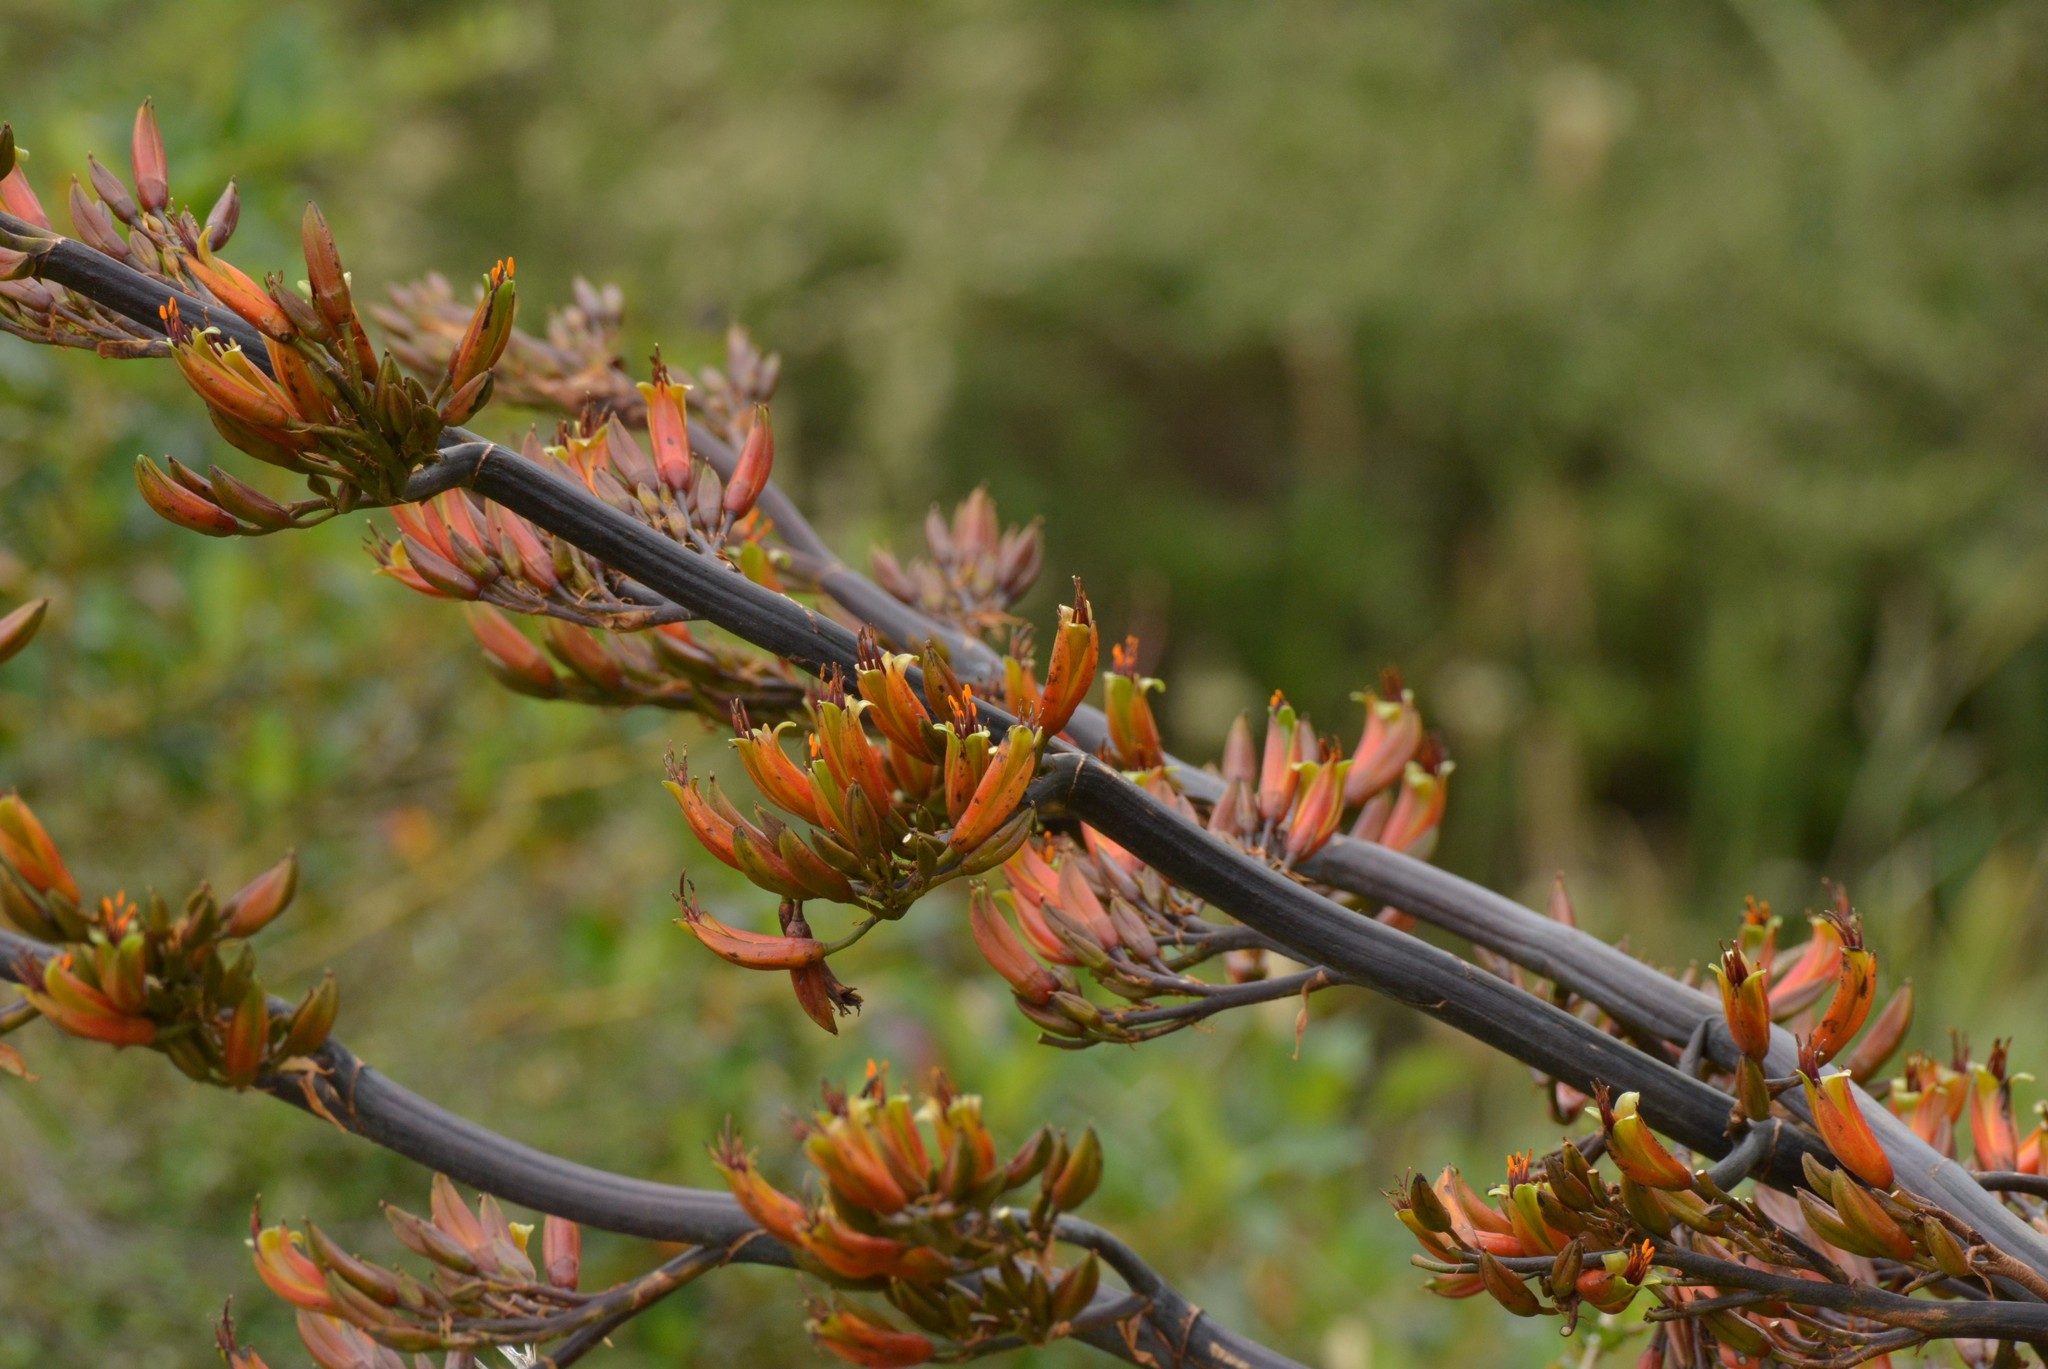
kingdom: Plantae
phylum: Tracheophyta
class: Liliopsida
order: Asparagales
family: Asphodelaceae
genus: Phormium
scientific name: Phormium tenax
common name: New zealand flax
